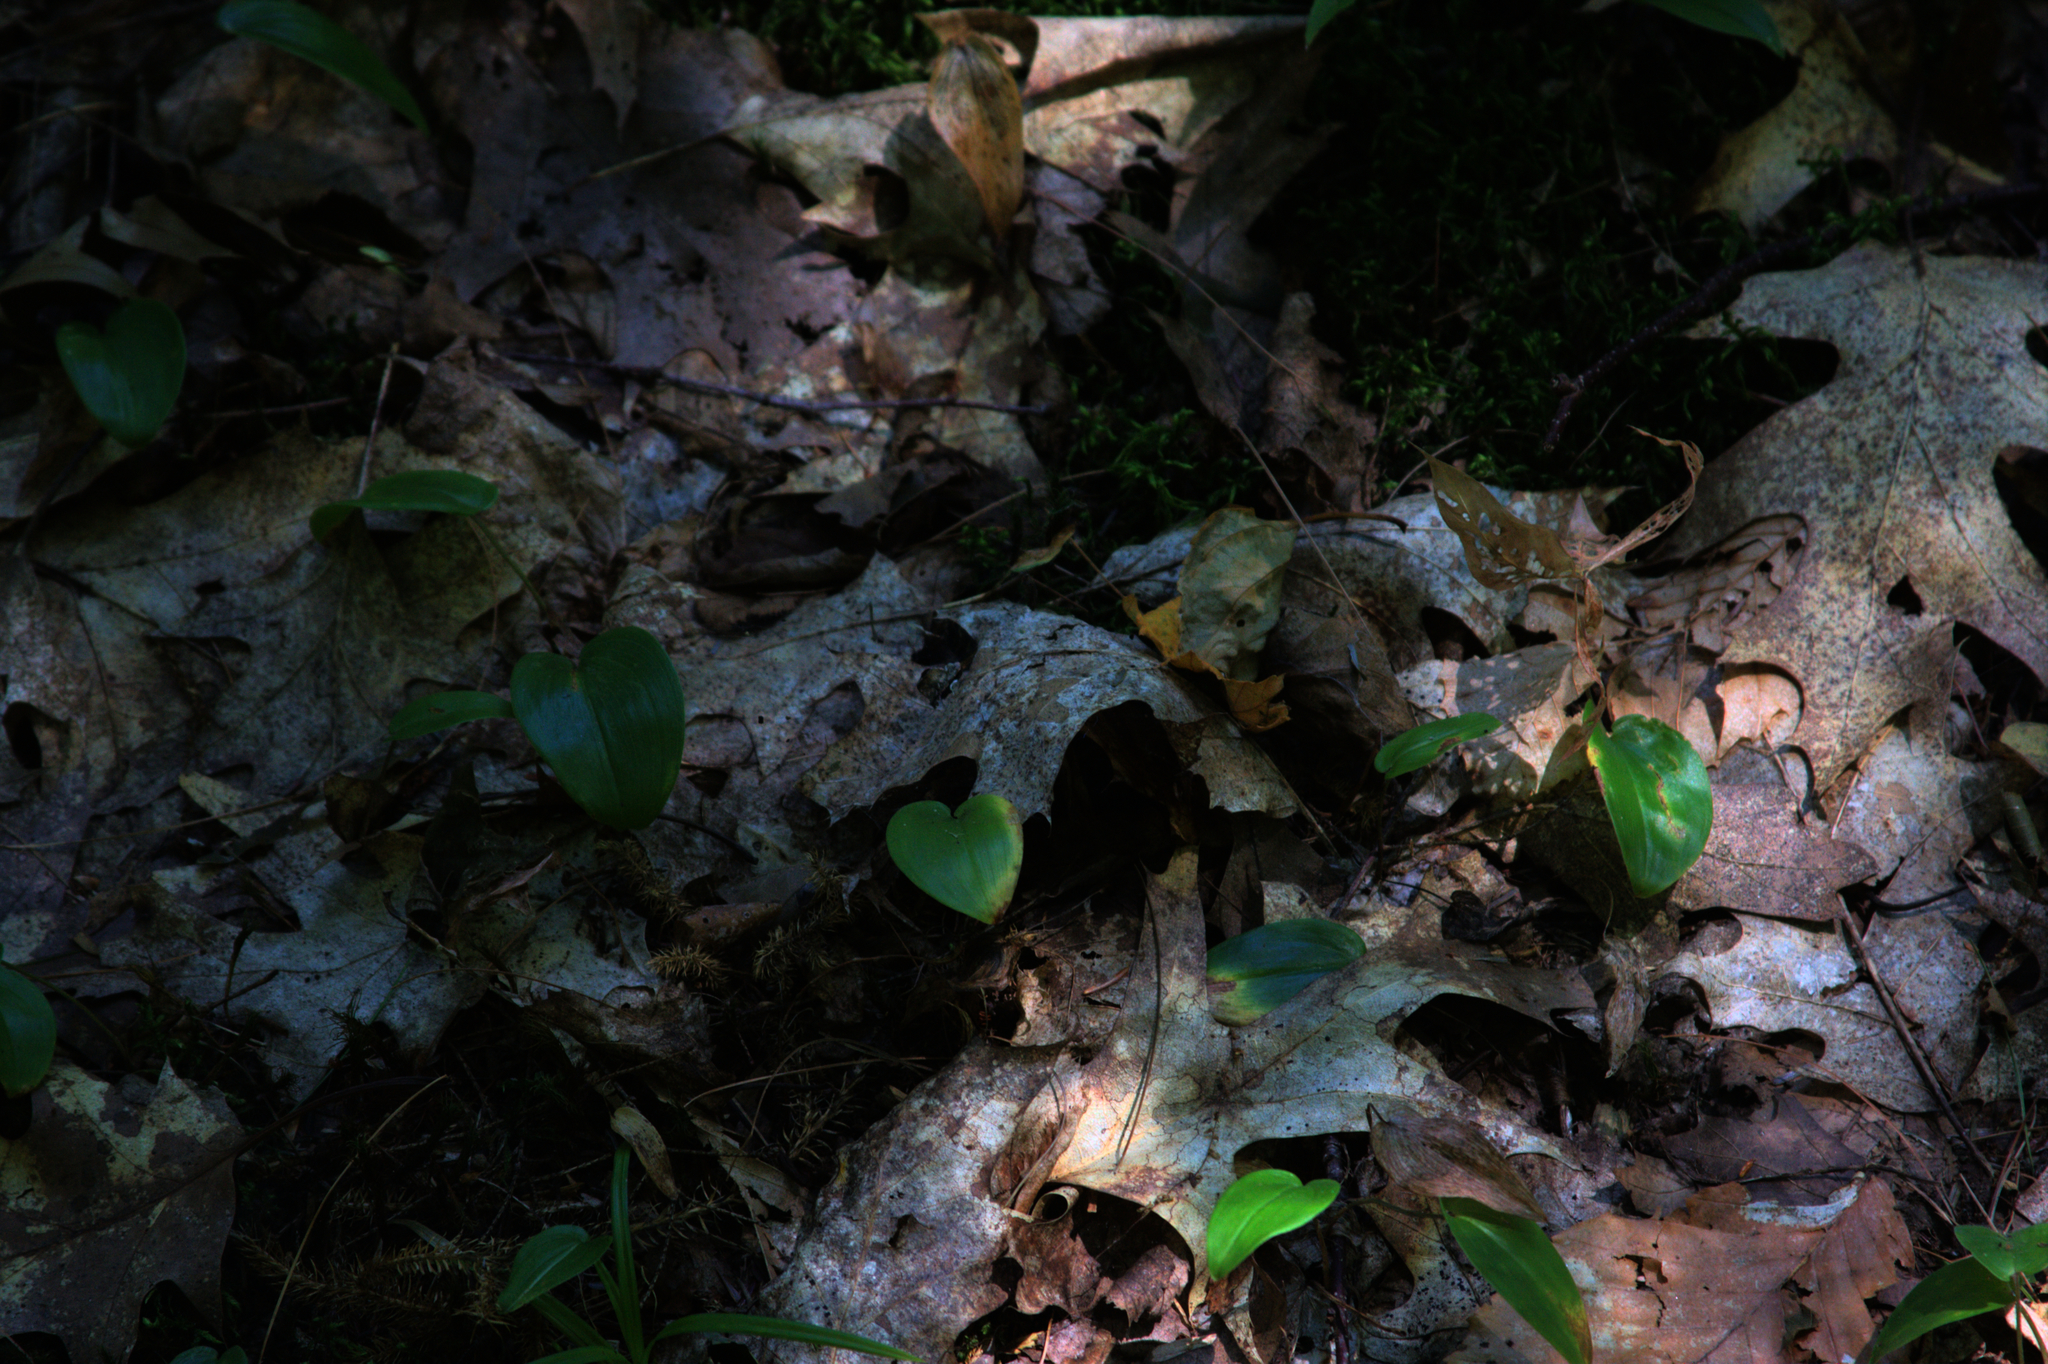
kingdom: Plantae
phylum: Tracheophyta
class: Liliopsida
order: Asparagales
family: Asparagaceae
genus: Maianthemum
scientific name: Maianthemum canadense
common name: False lily-of-the-valley
